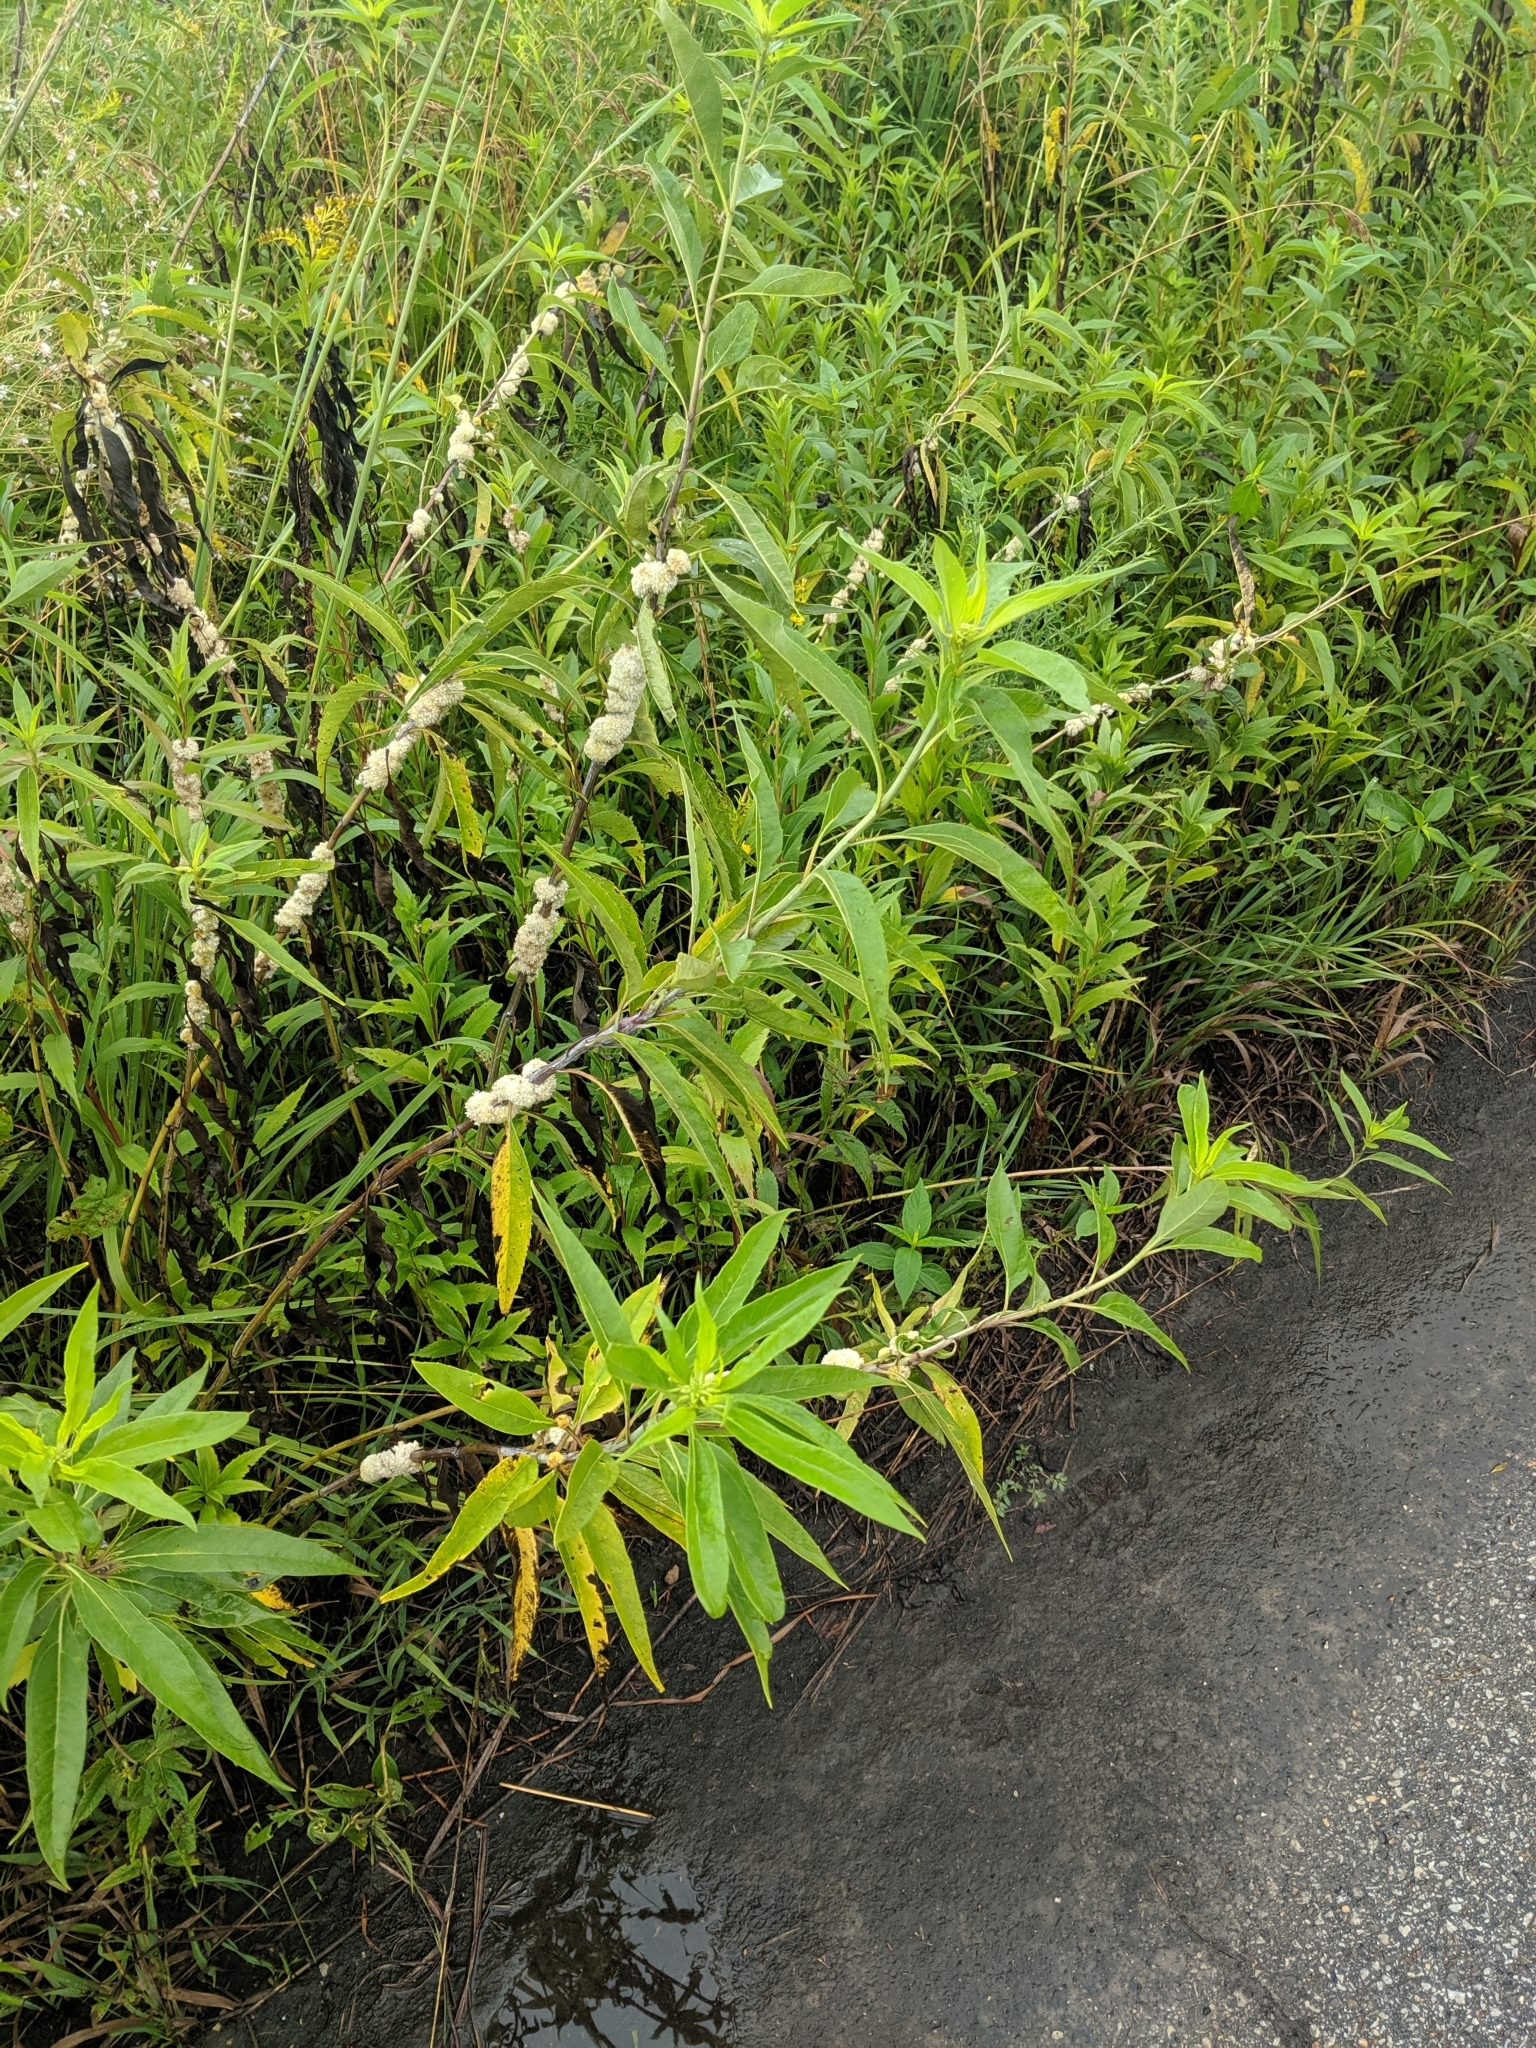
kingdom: Plantae
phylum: Tracheophyta
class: Magnoliopsida
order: Solanales
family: Convolvulaceae
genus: Cuscuta
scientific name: Cuscuta glomerata
